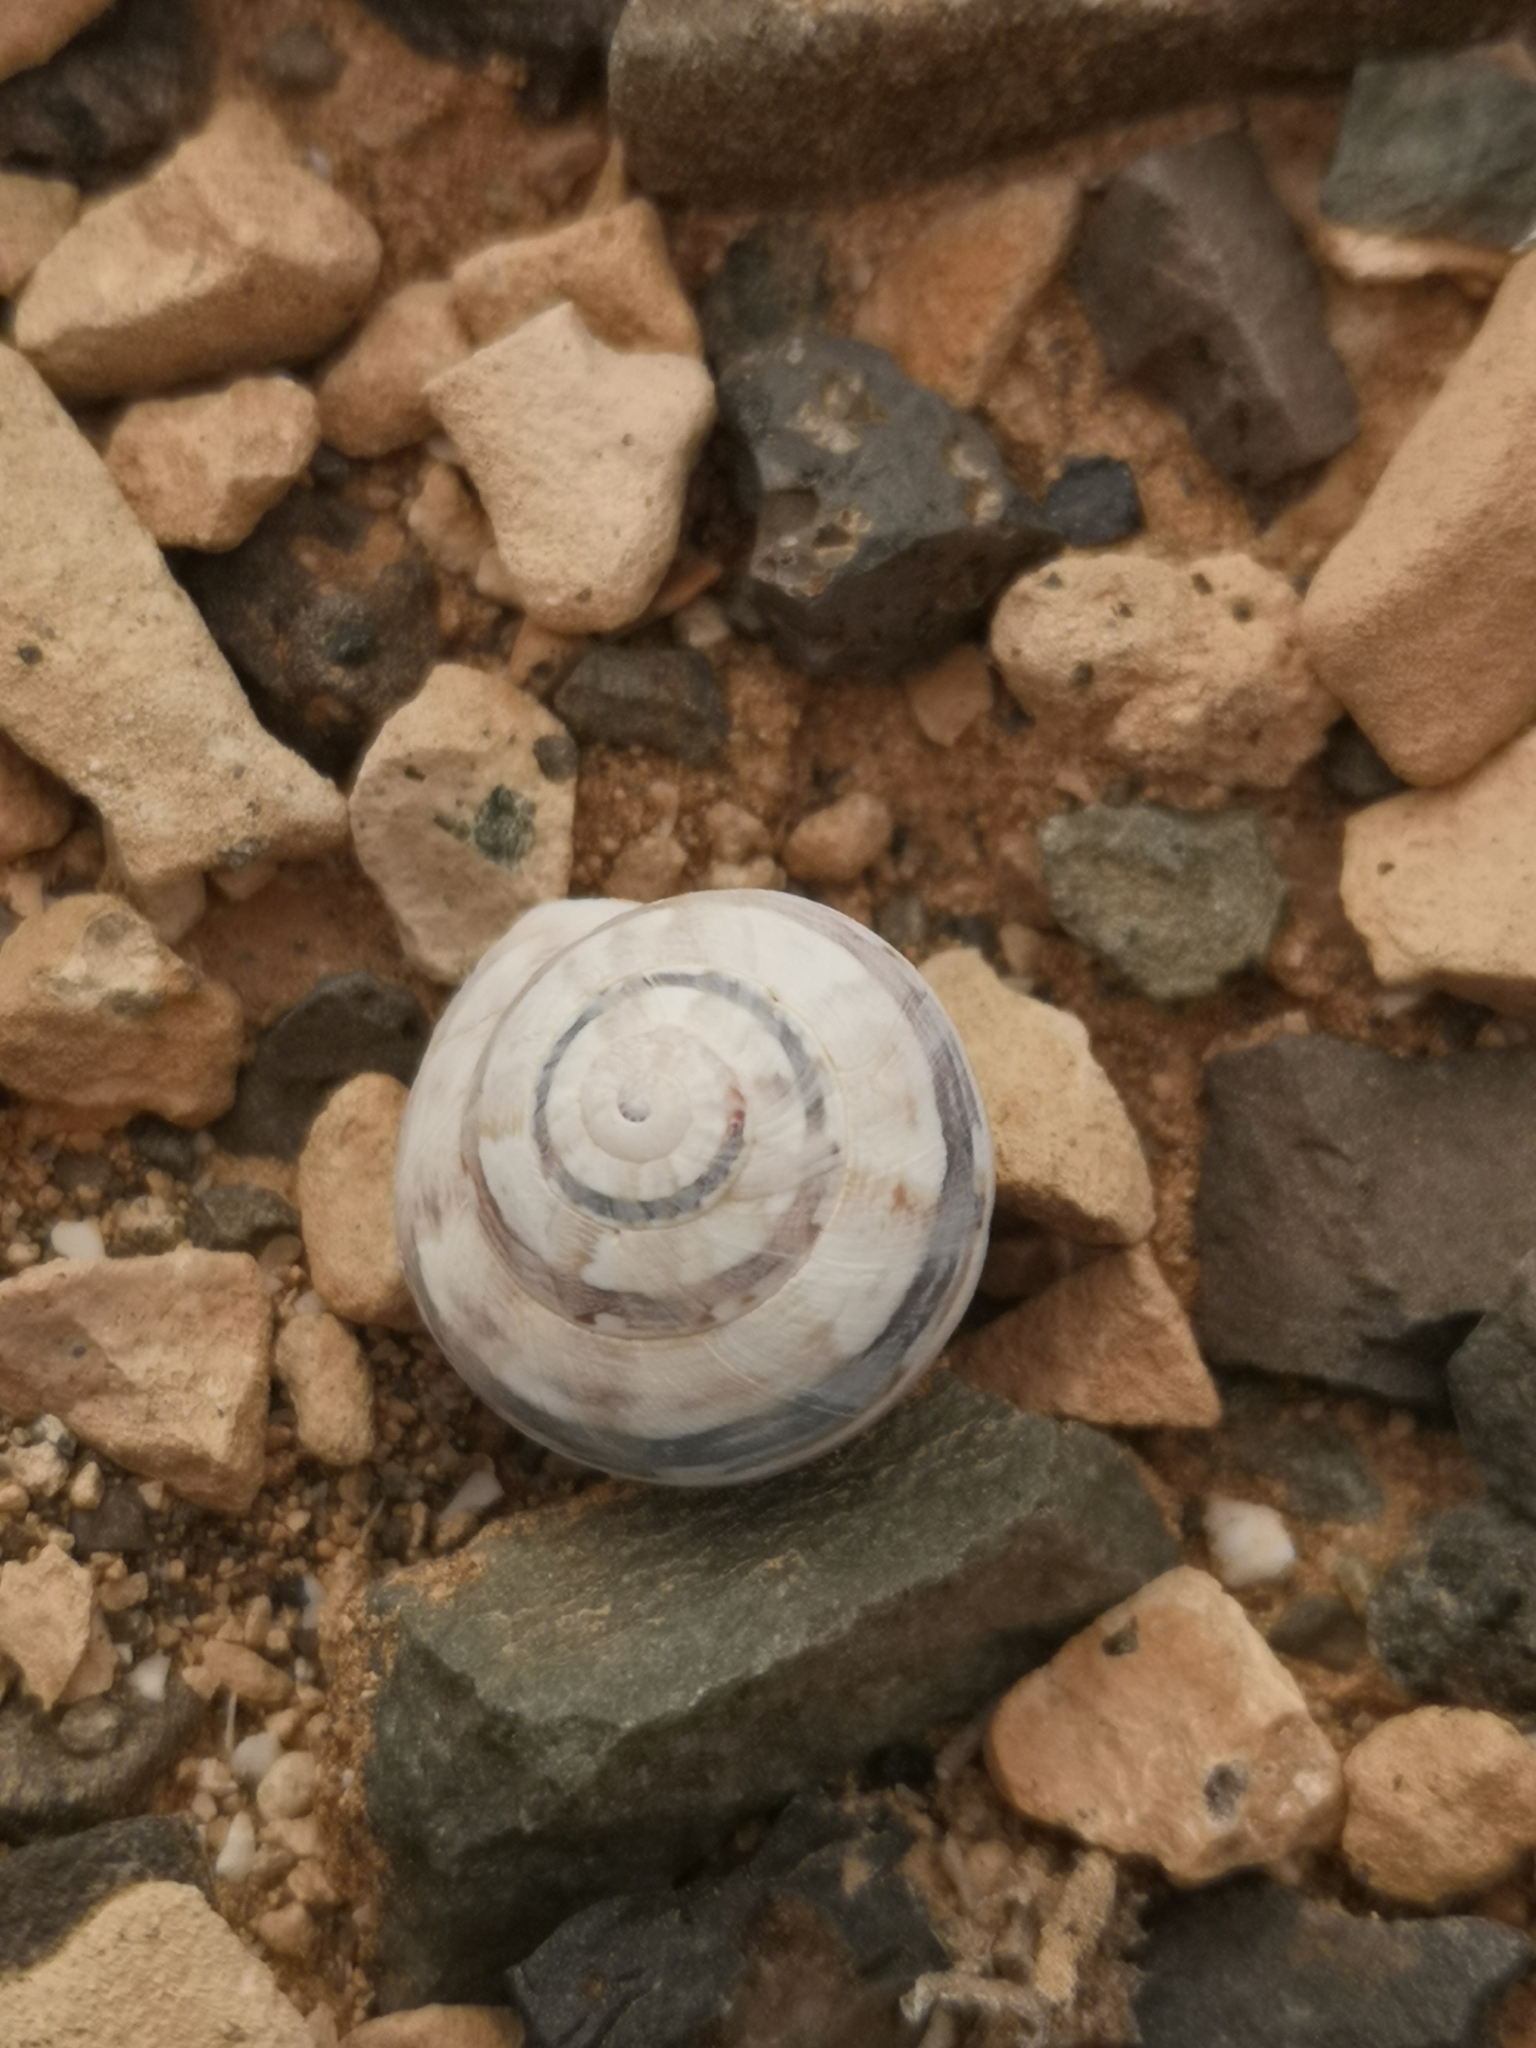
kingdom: Animalia
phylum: Mollusca
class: Gastropoda
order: Stylommatophora
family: Helicidae
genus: Theba
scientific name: Theba geminata
